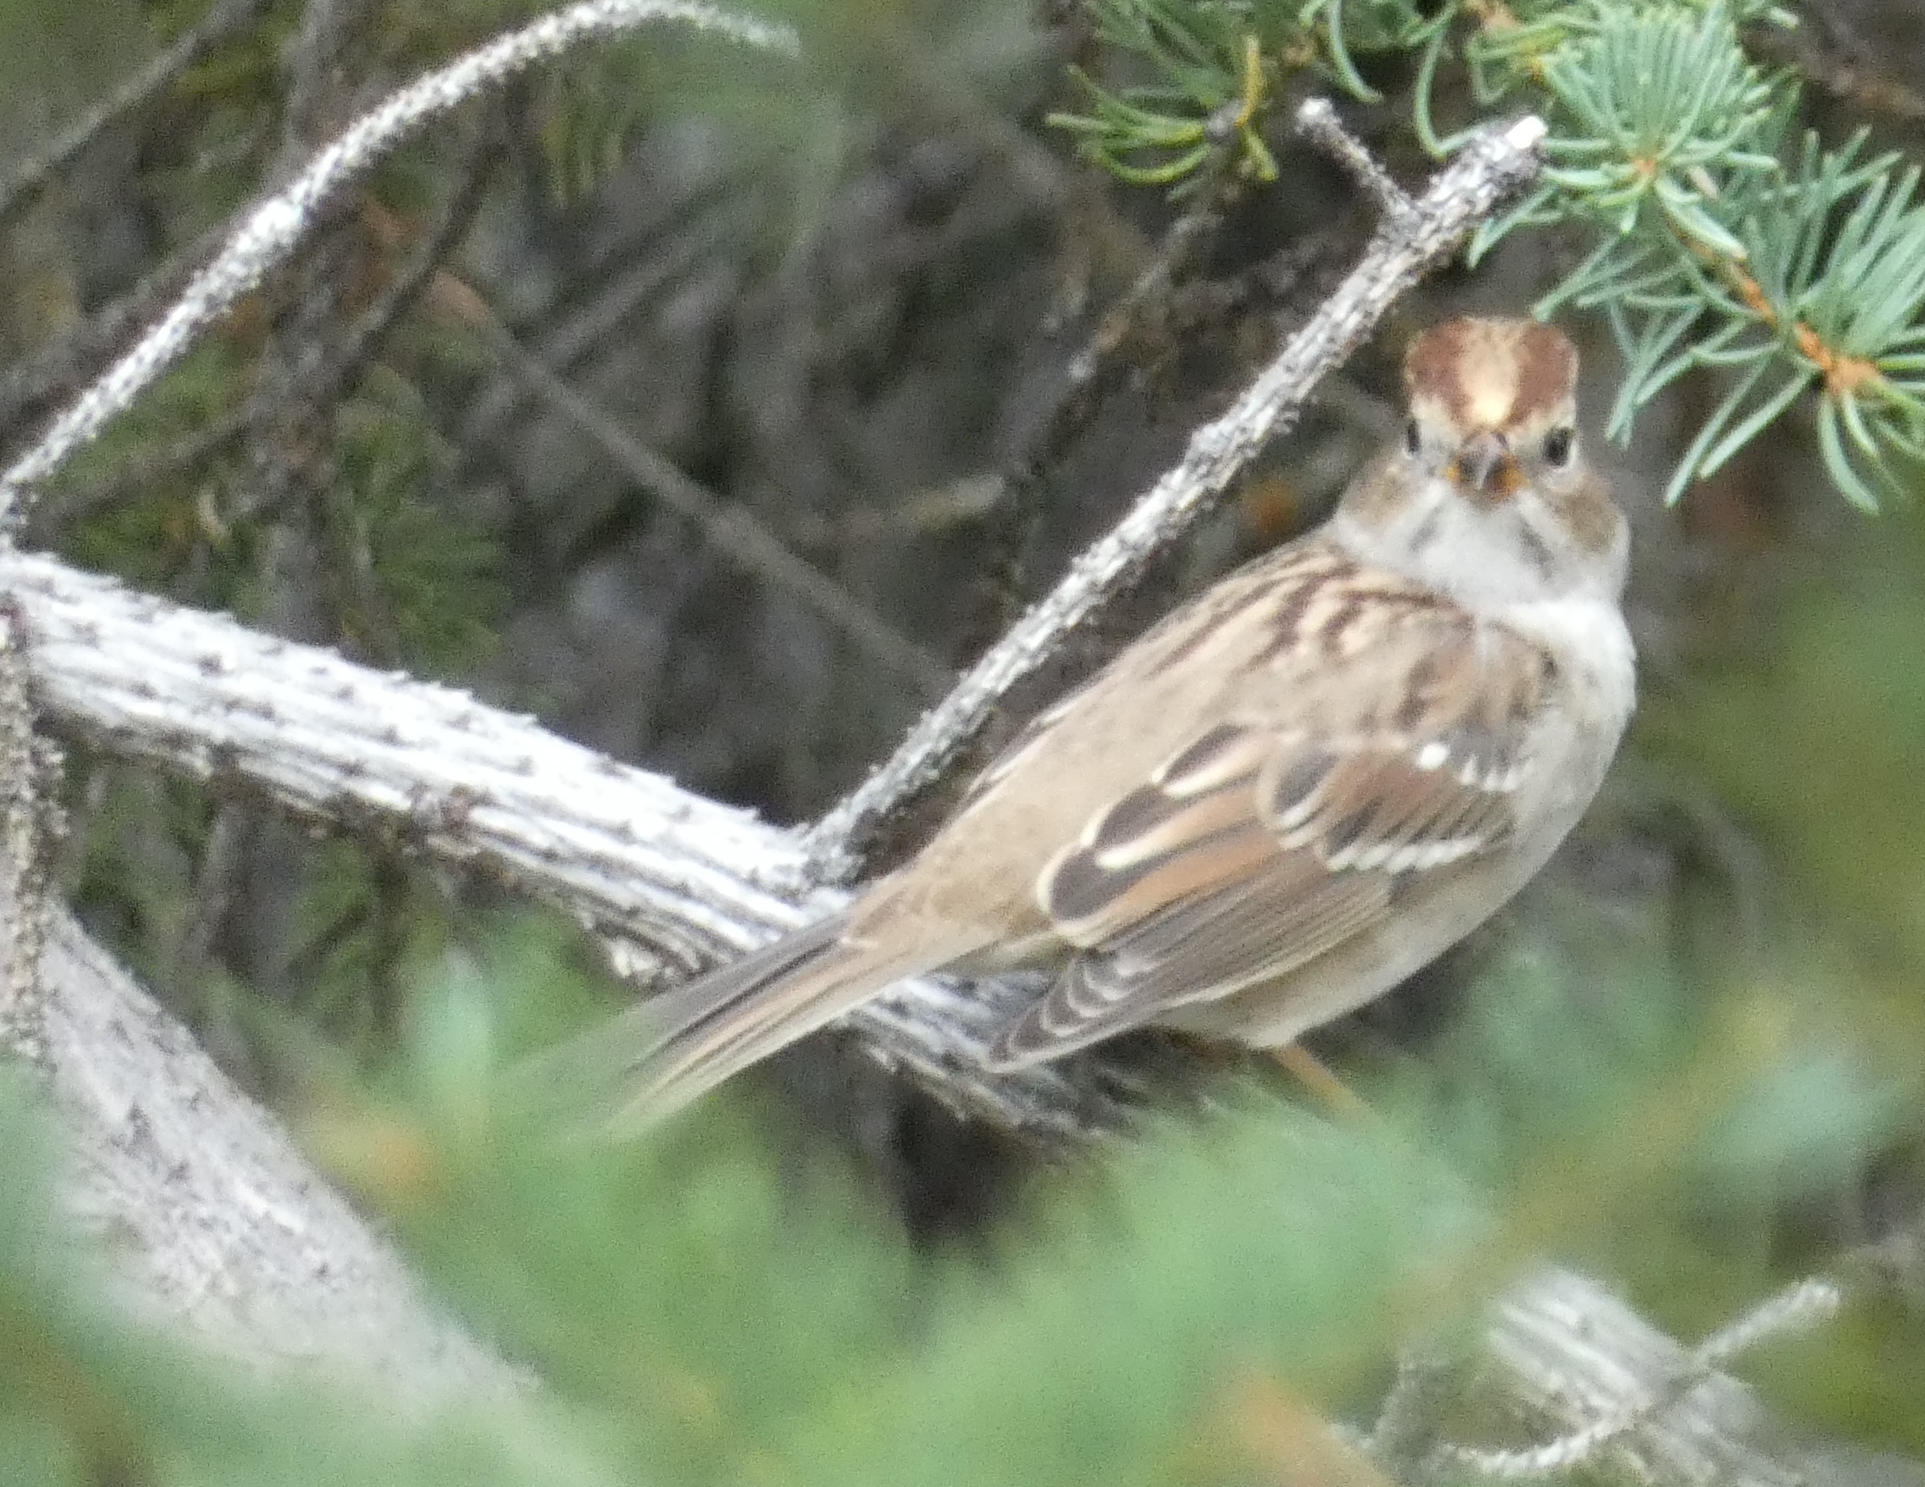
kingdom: Animalia
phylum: Chordata
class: Aves
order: Passeriformes
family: Passerellidae
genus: Zonotrichia
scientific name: Zonotrichia leucophrys
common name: White-crowned sparrow
